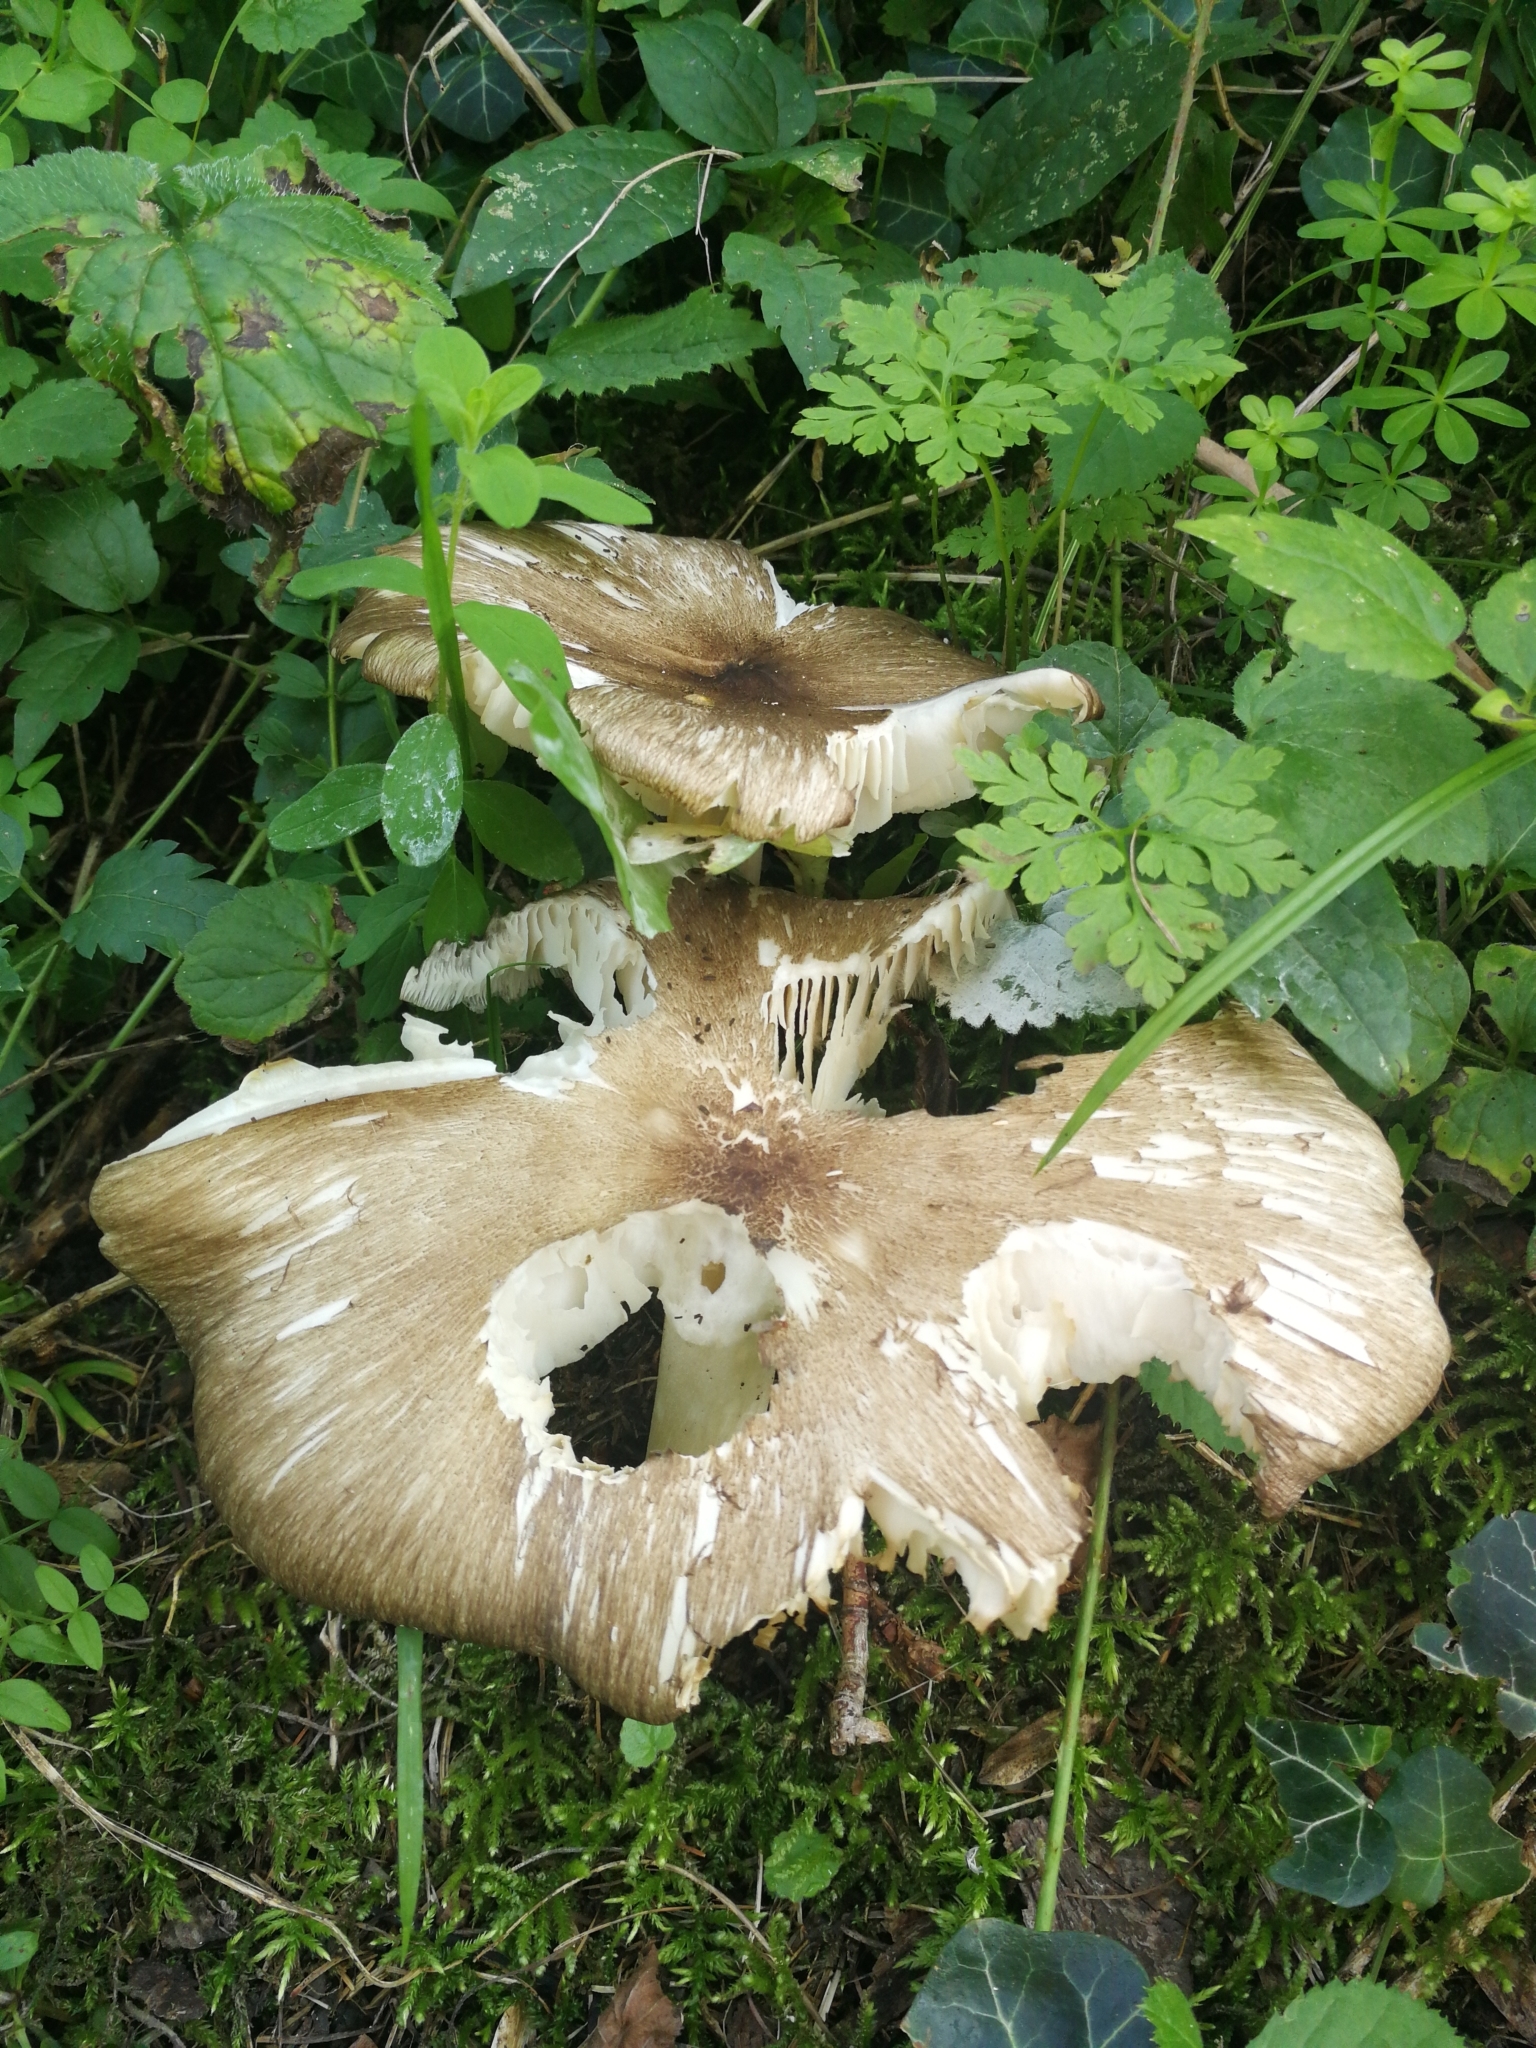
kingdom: Fungi
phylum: Basidiomycota
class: Agaricomycetes
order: Agaricales
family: Tricholomataceae
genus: Megacollybia
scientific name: Megacollybia platyphylla
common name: Whitelaced shank
